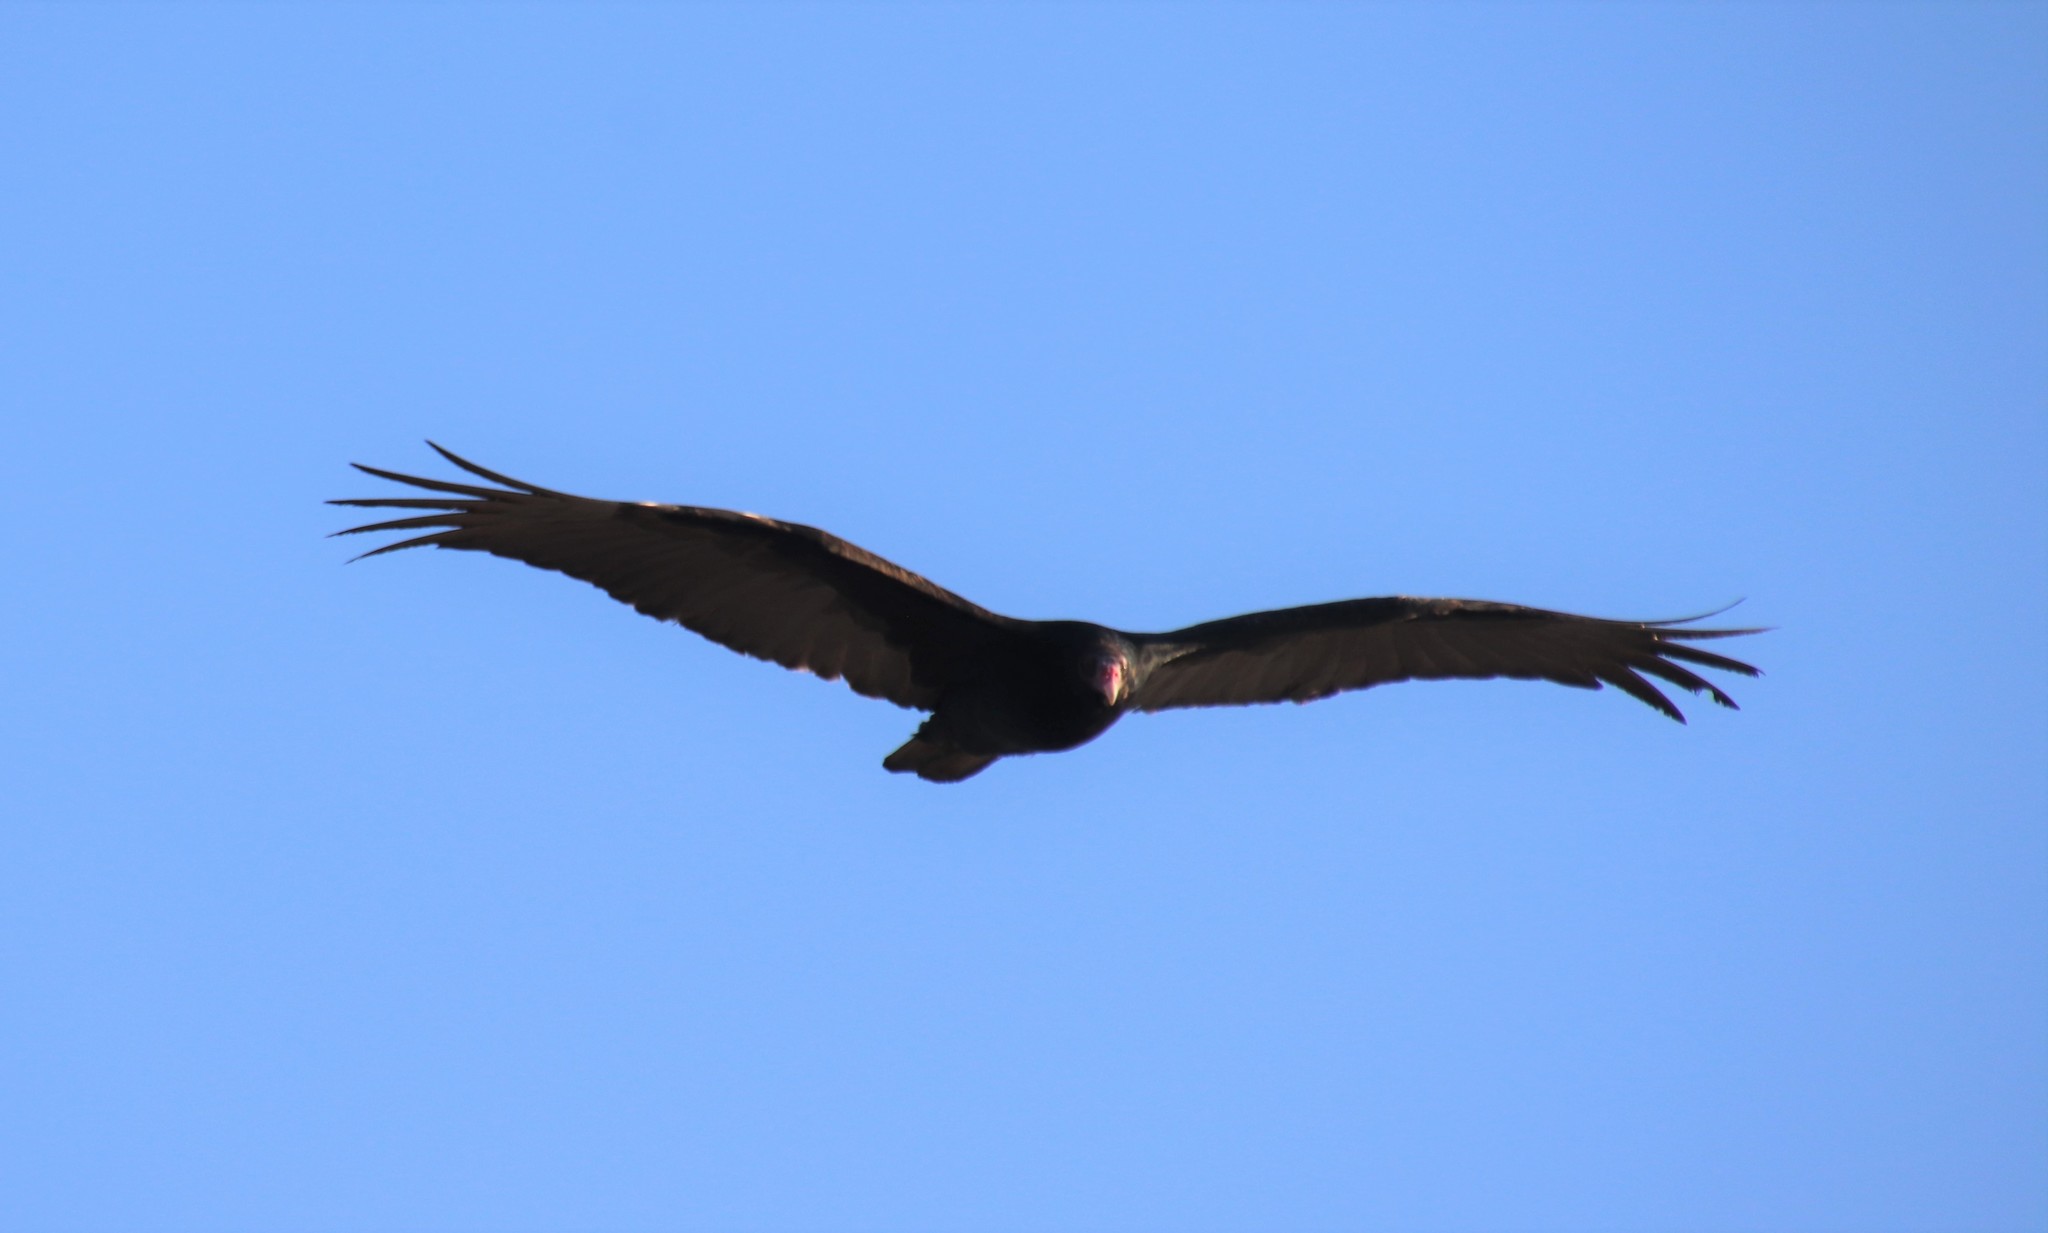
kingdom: Animalia
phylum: Chordata
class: Aves
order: Accipitriformes
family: Cathartidae
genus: Cathartes
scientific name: Cathartes aura
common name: Turkey vulture
